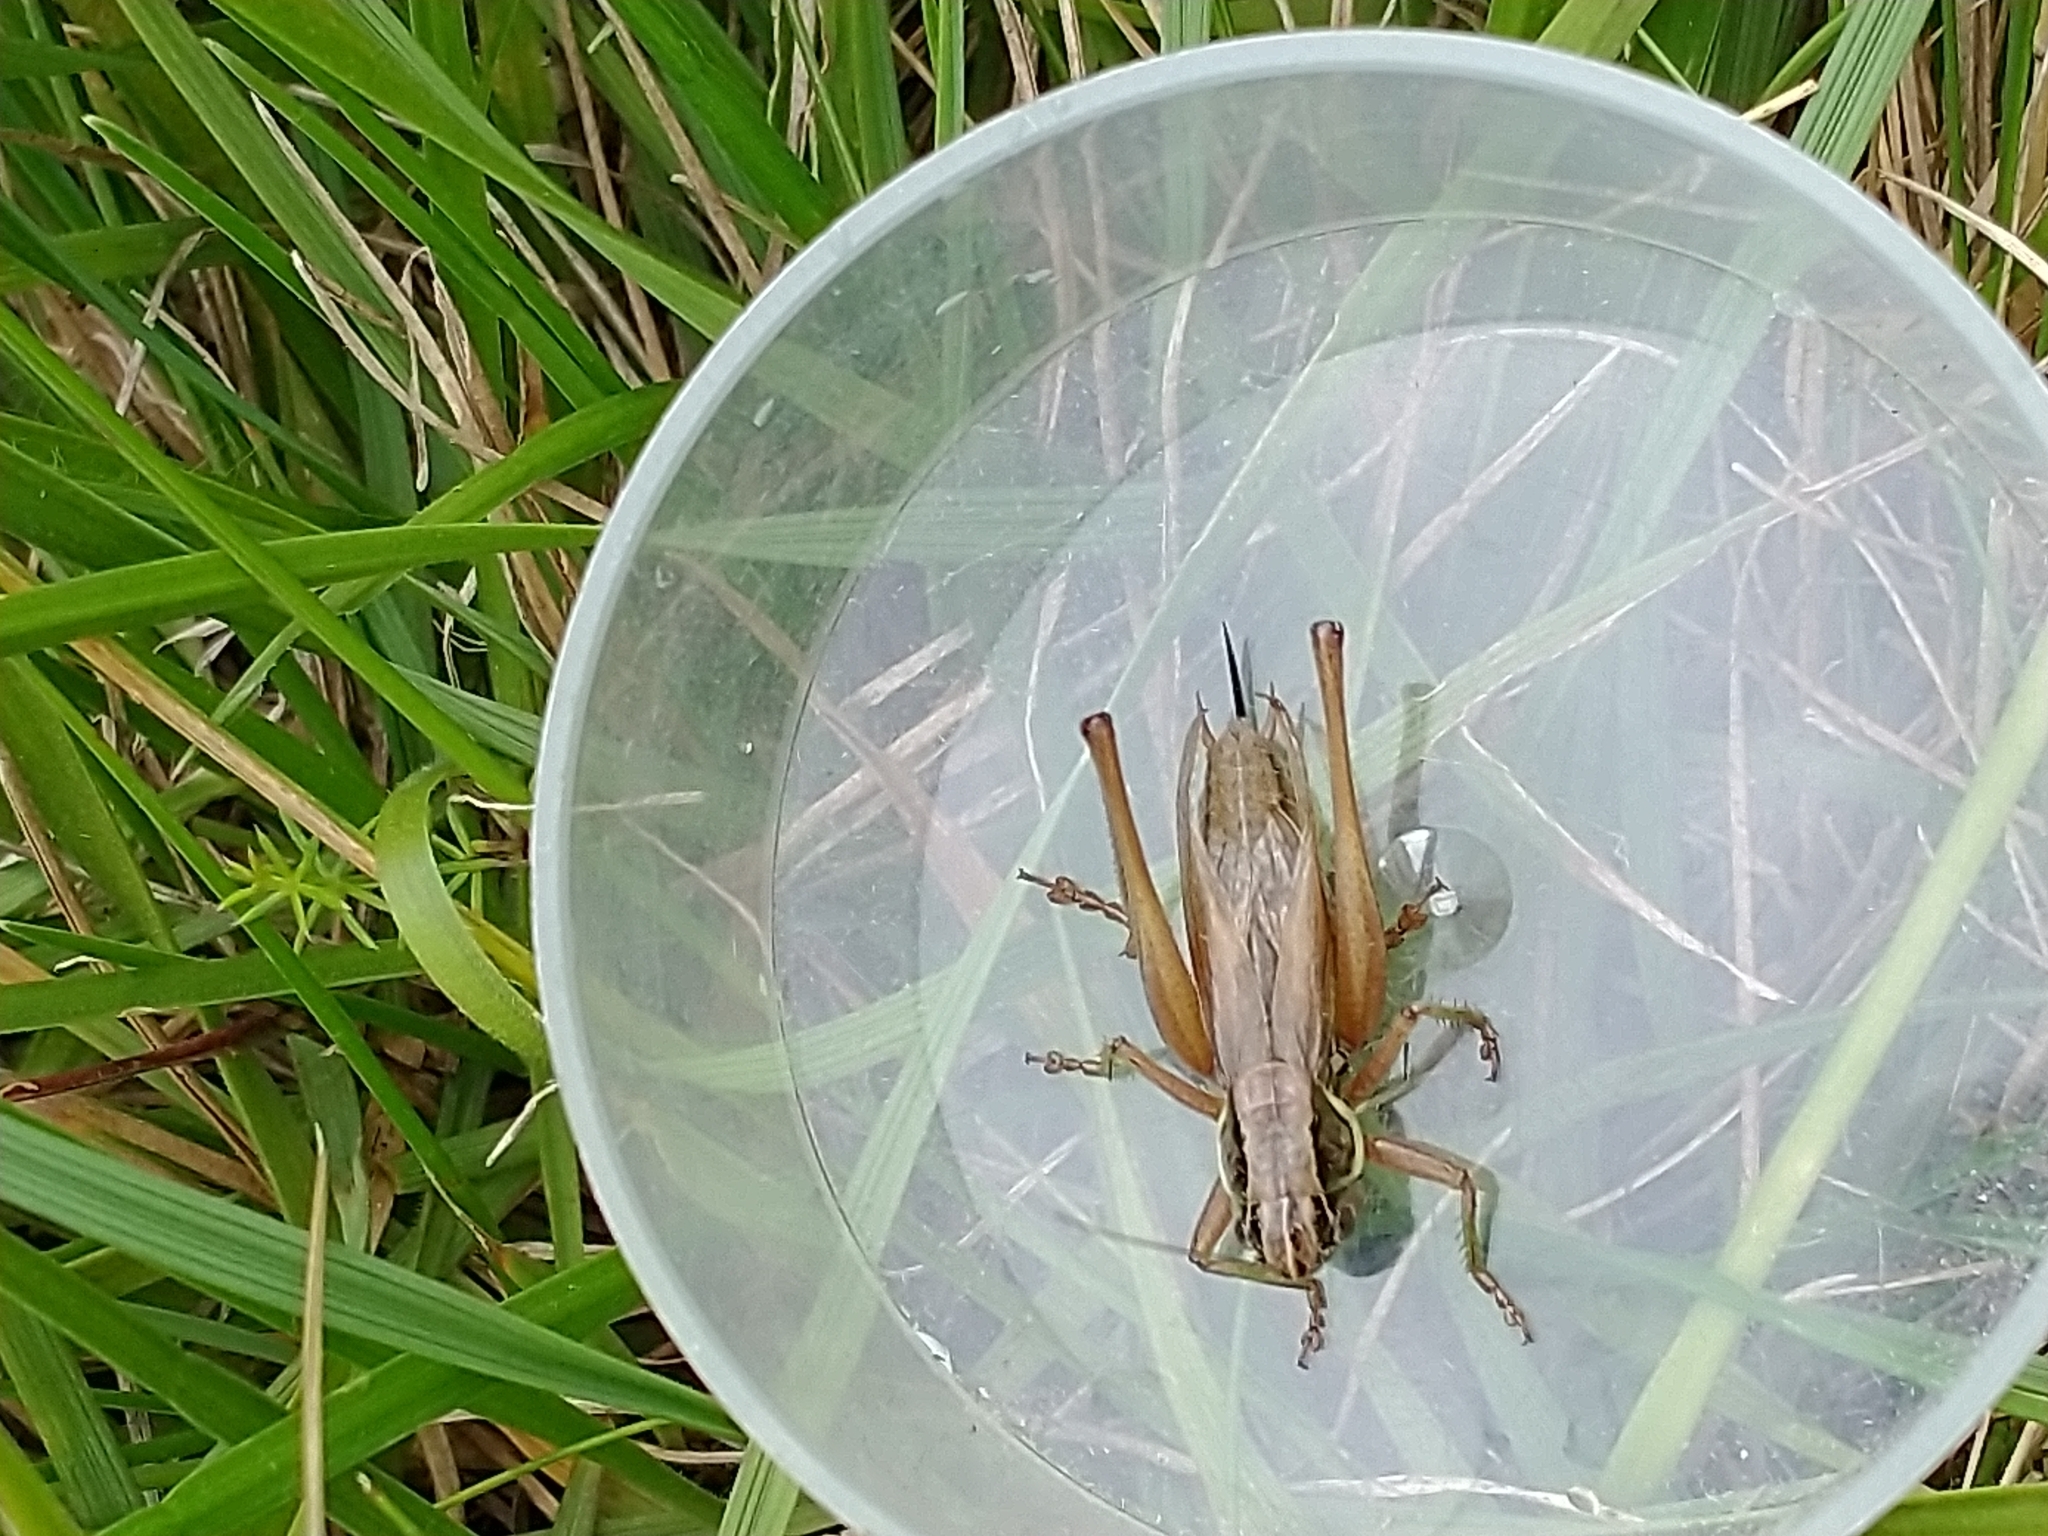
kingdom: Animalia
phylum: Arthropoda
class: Insecta
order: Orthoptera
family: Tettigoniidae
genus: Roeseliana
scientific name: Roeseliana roeselii
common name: Roesel's bush cricket
